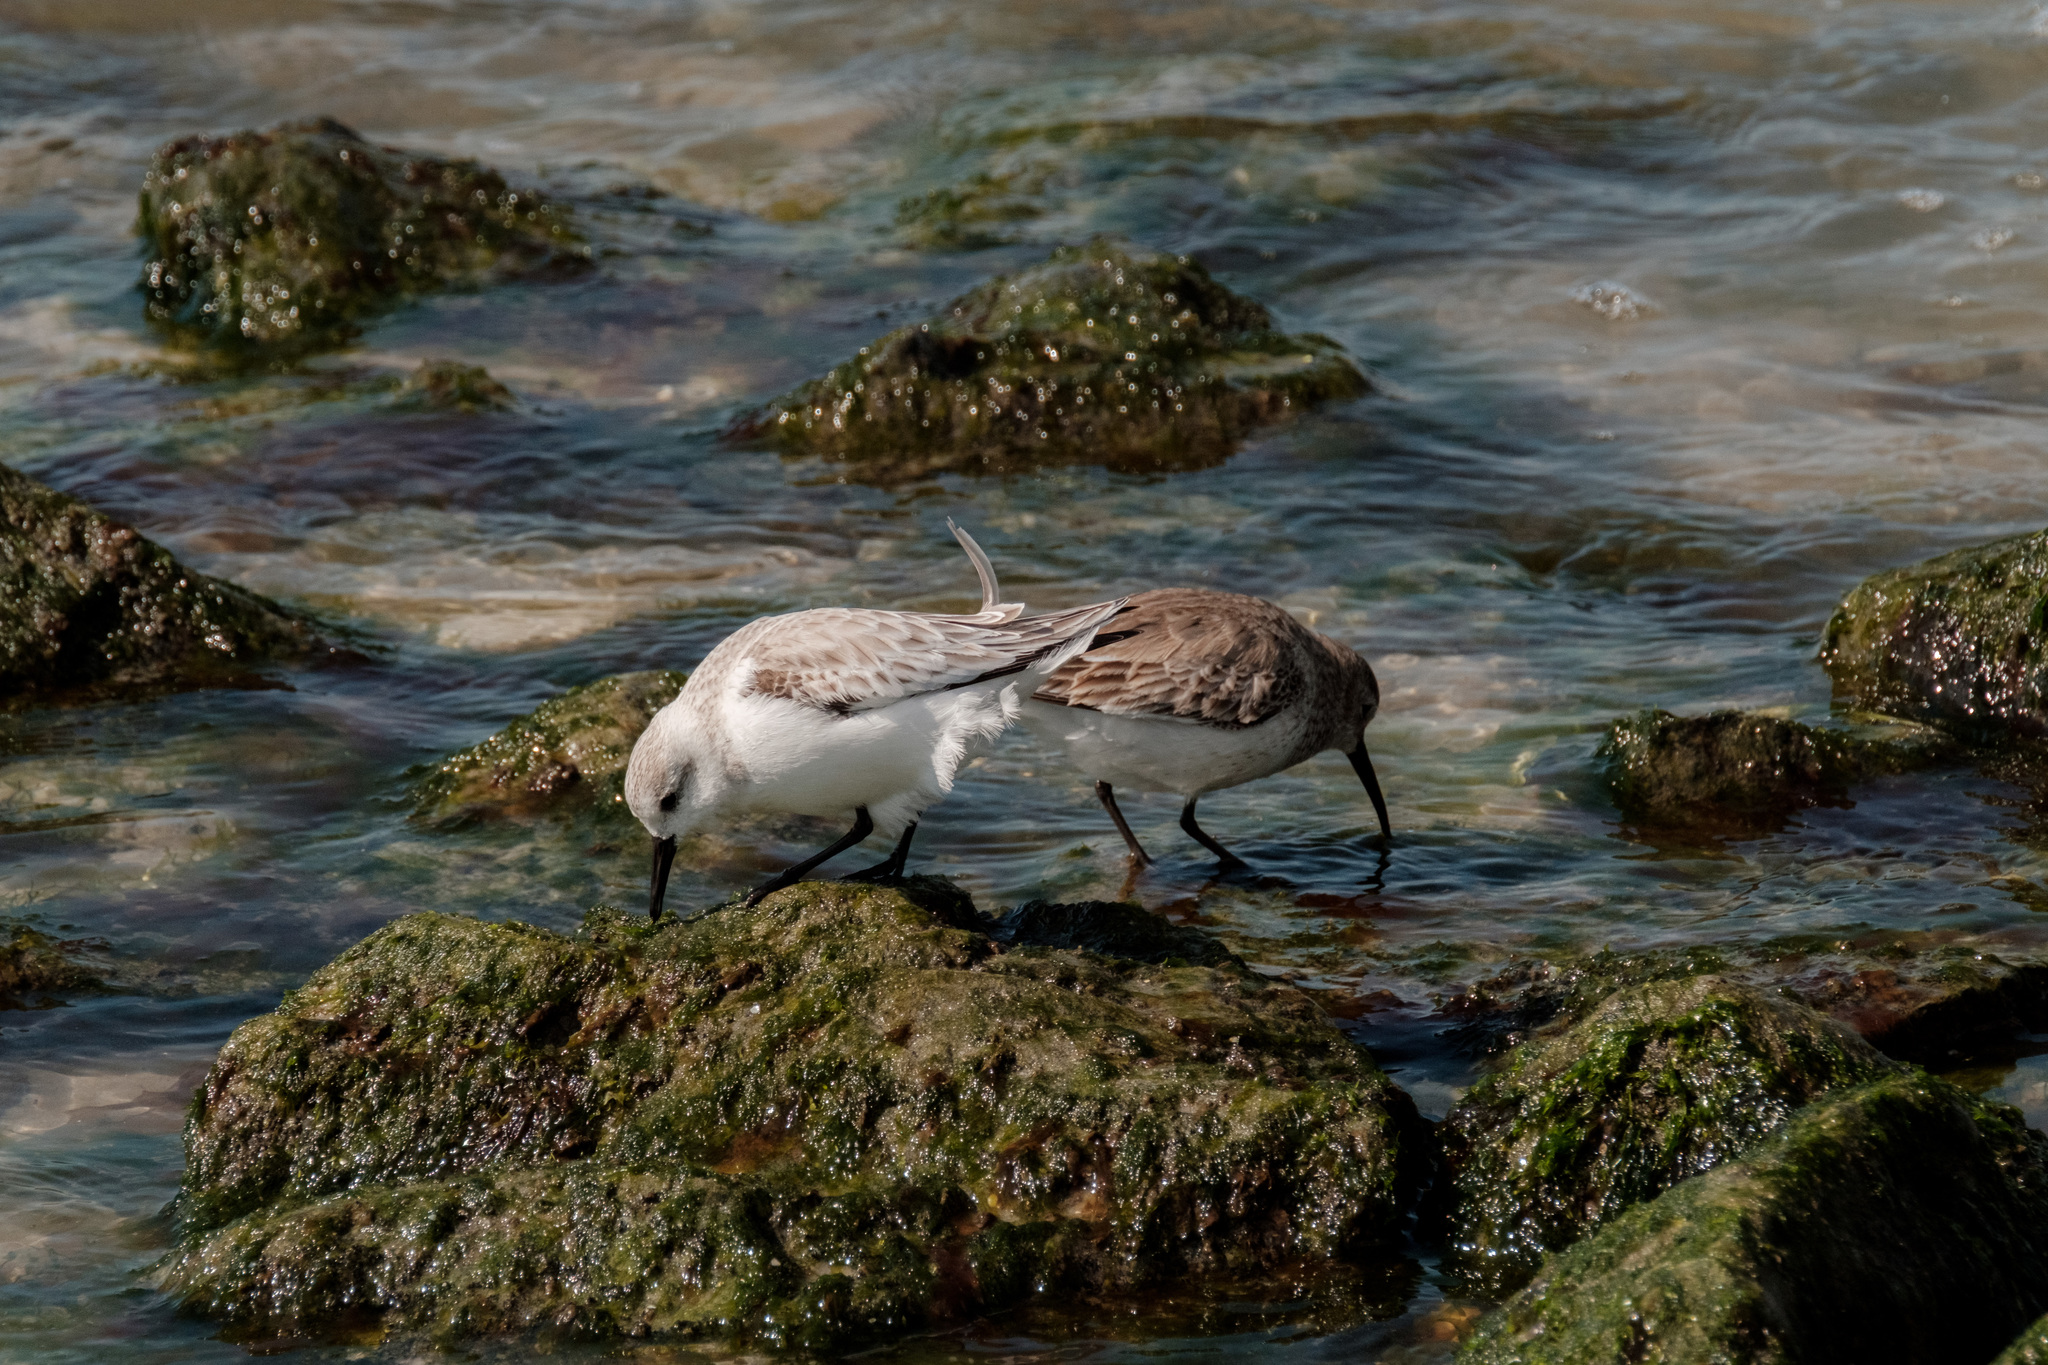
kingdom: Animalia
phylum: Chordata
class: Aves
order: Charadriiformes
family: Scolopacidae
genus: Calidris
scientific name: Calidris alpina
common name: Dunlin
